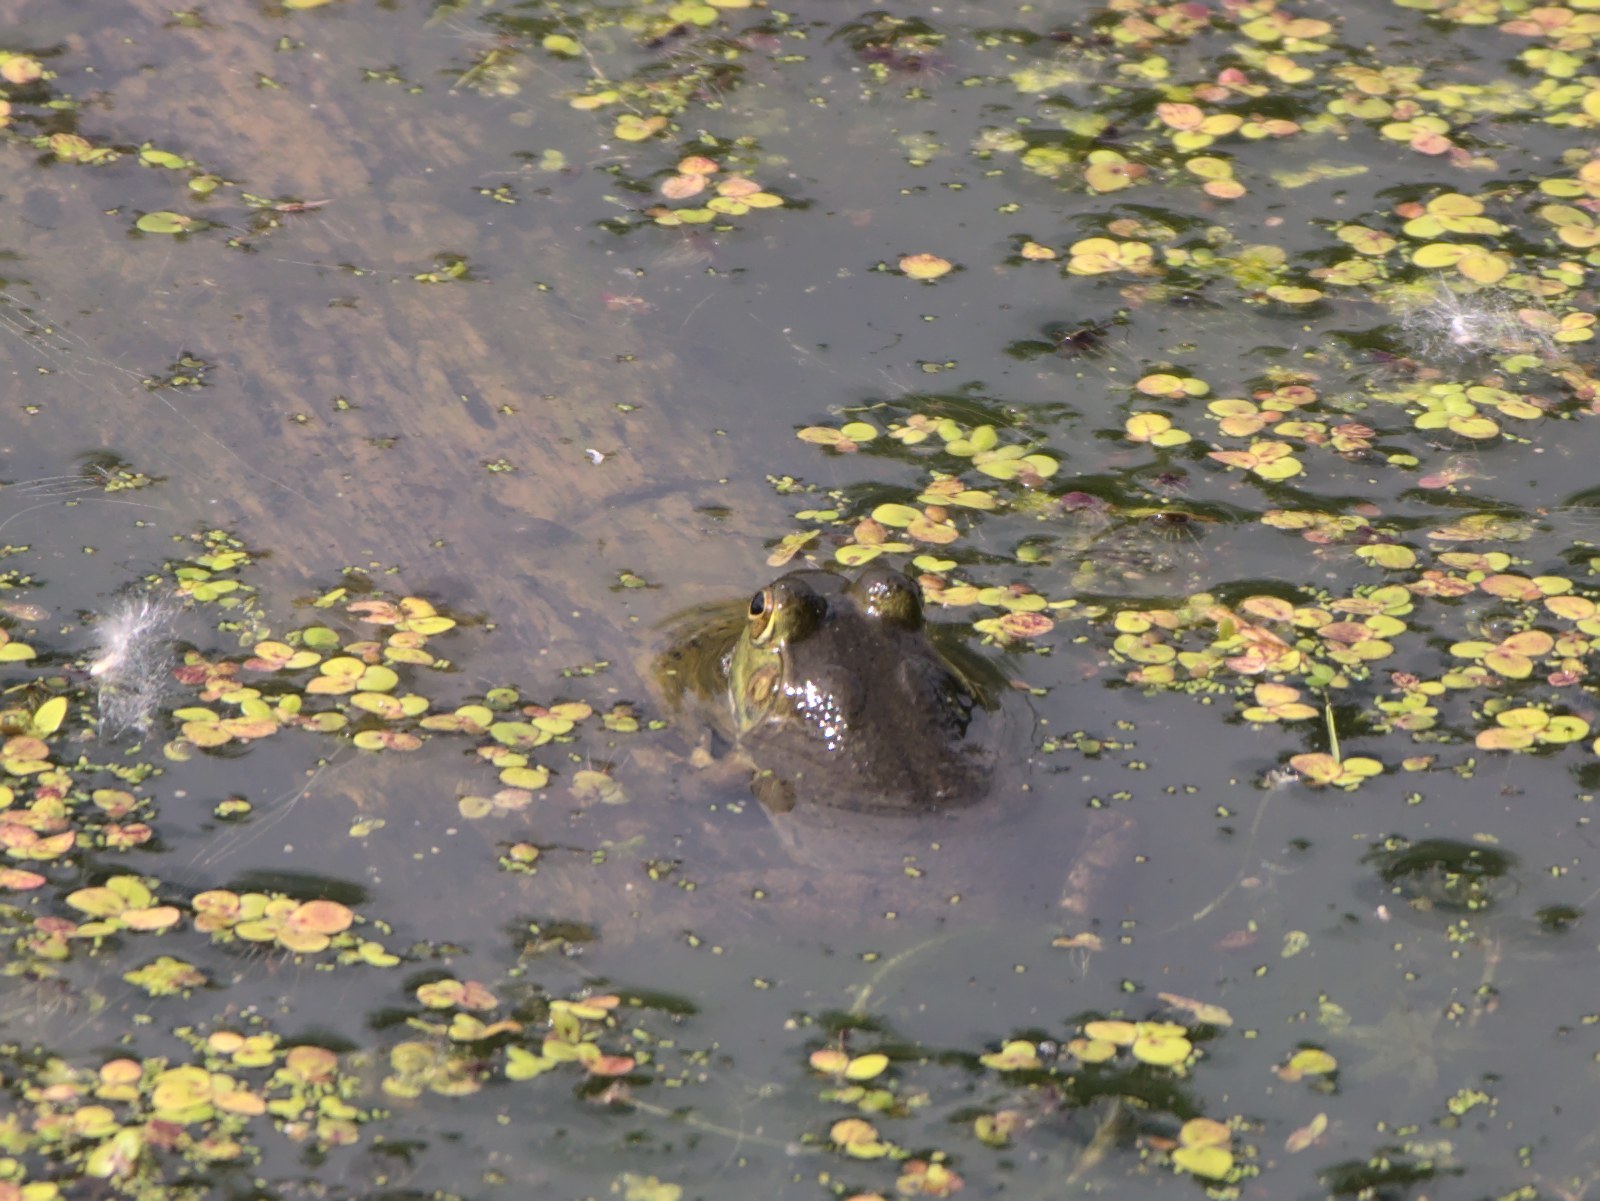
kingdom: Animalia
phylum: Chordata
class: Amphibia
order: Anura
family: Ranidae
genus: Lithobates
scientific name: Lithobates catesbeianus
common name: American bullfrog
